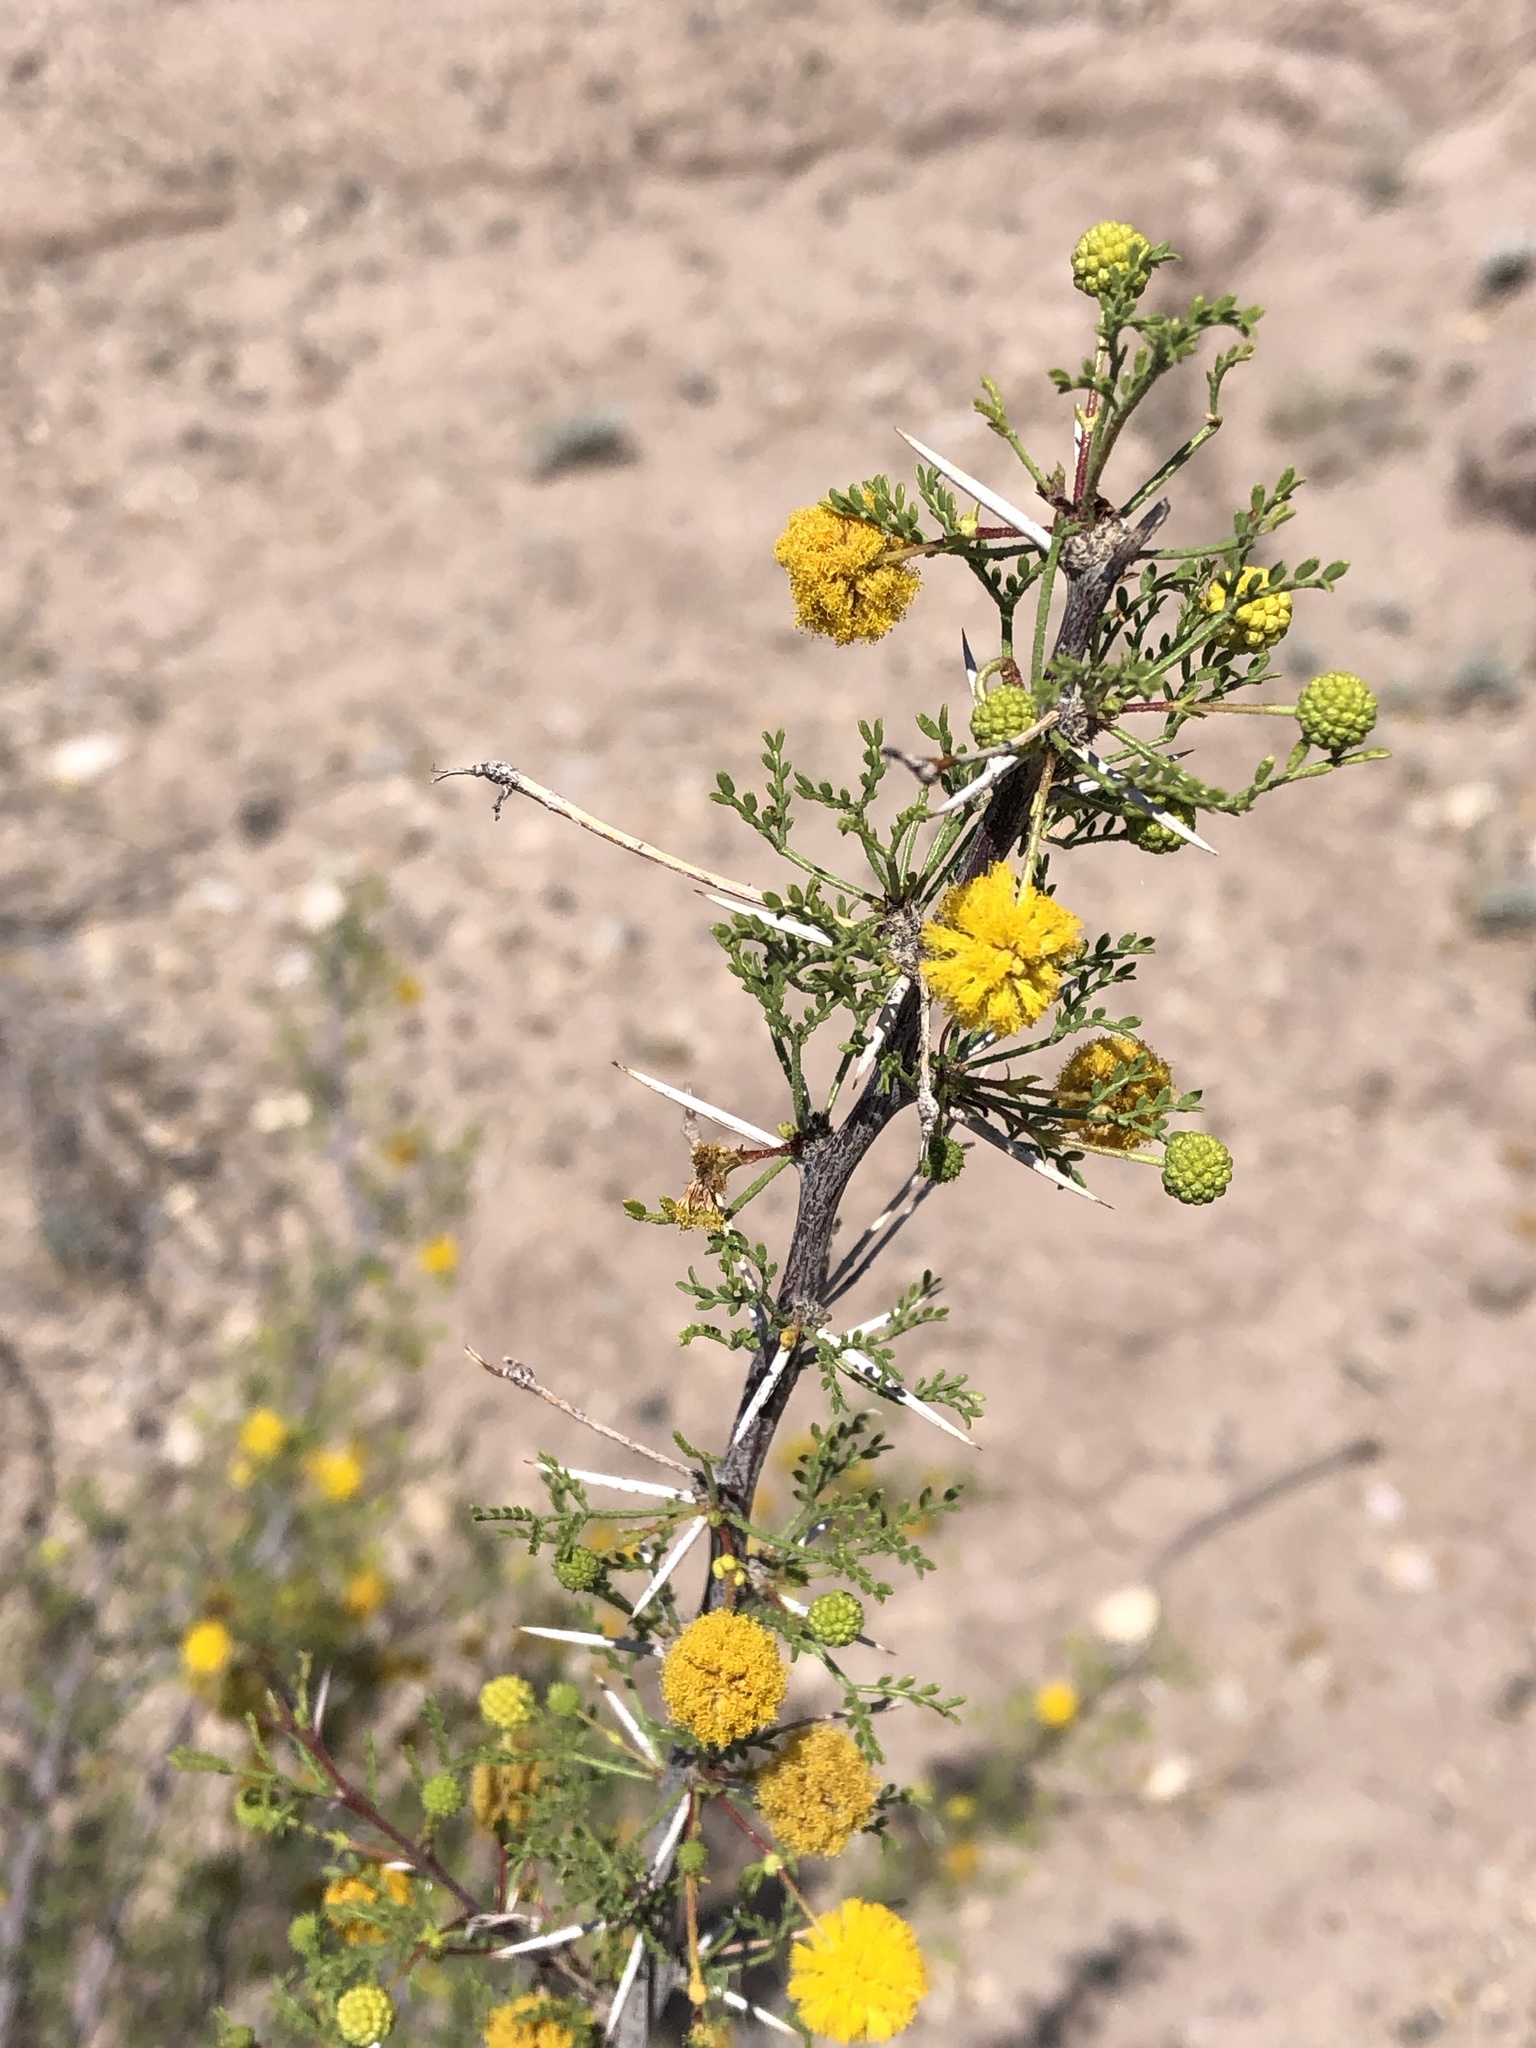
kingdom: Plantae
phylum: Tracheophyta
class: Magnoliopsida
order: Fabales
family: Fabaceae
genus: Vachellia
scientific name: Vachellia vernicosa
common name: Viscid acacia
